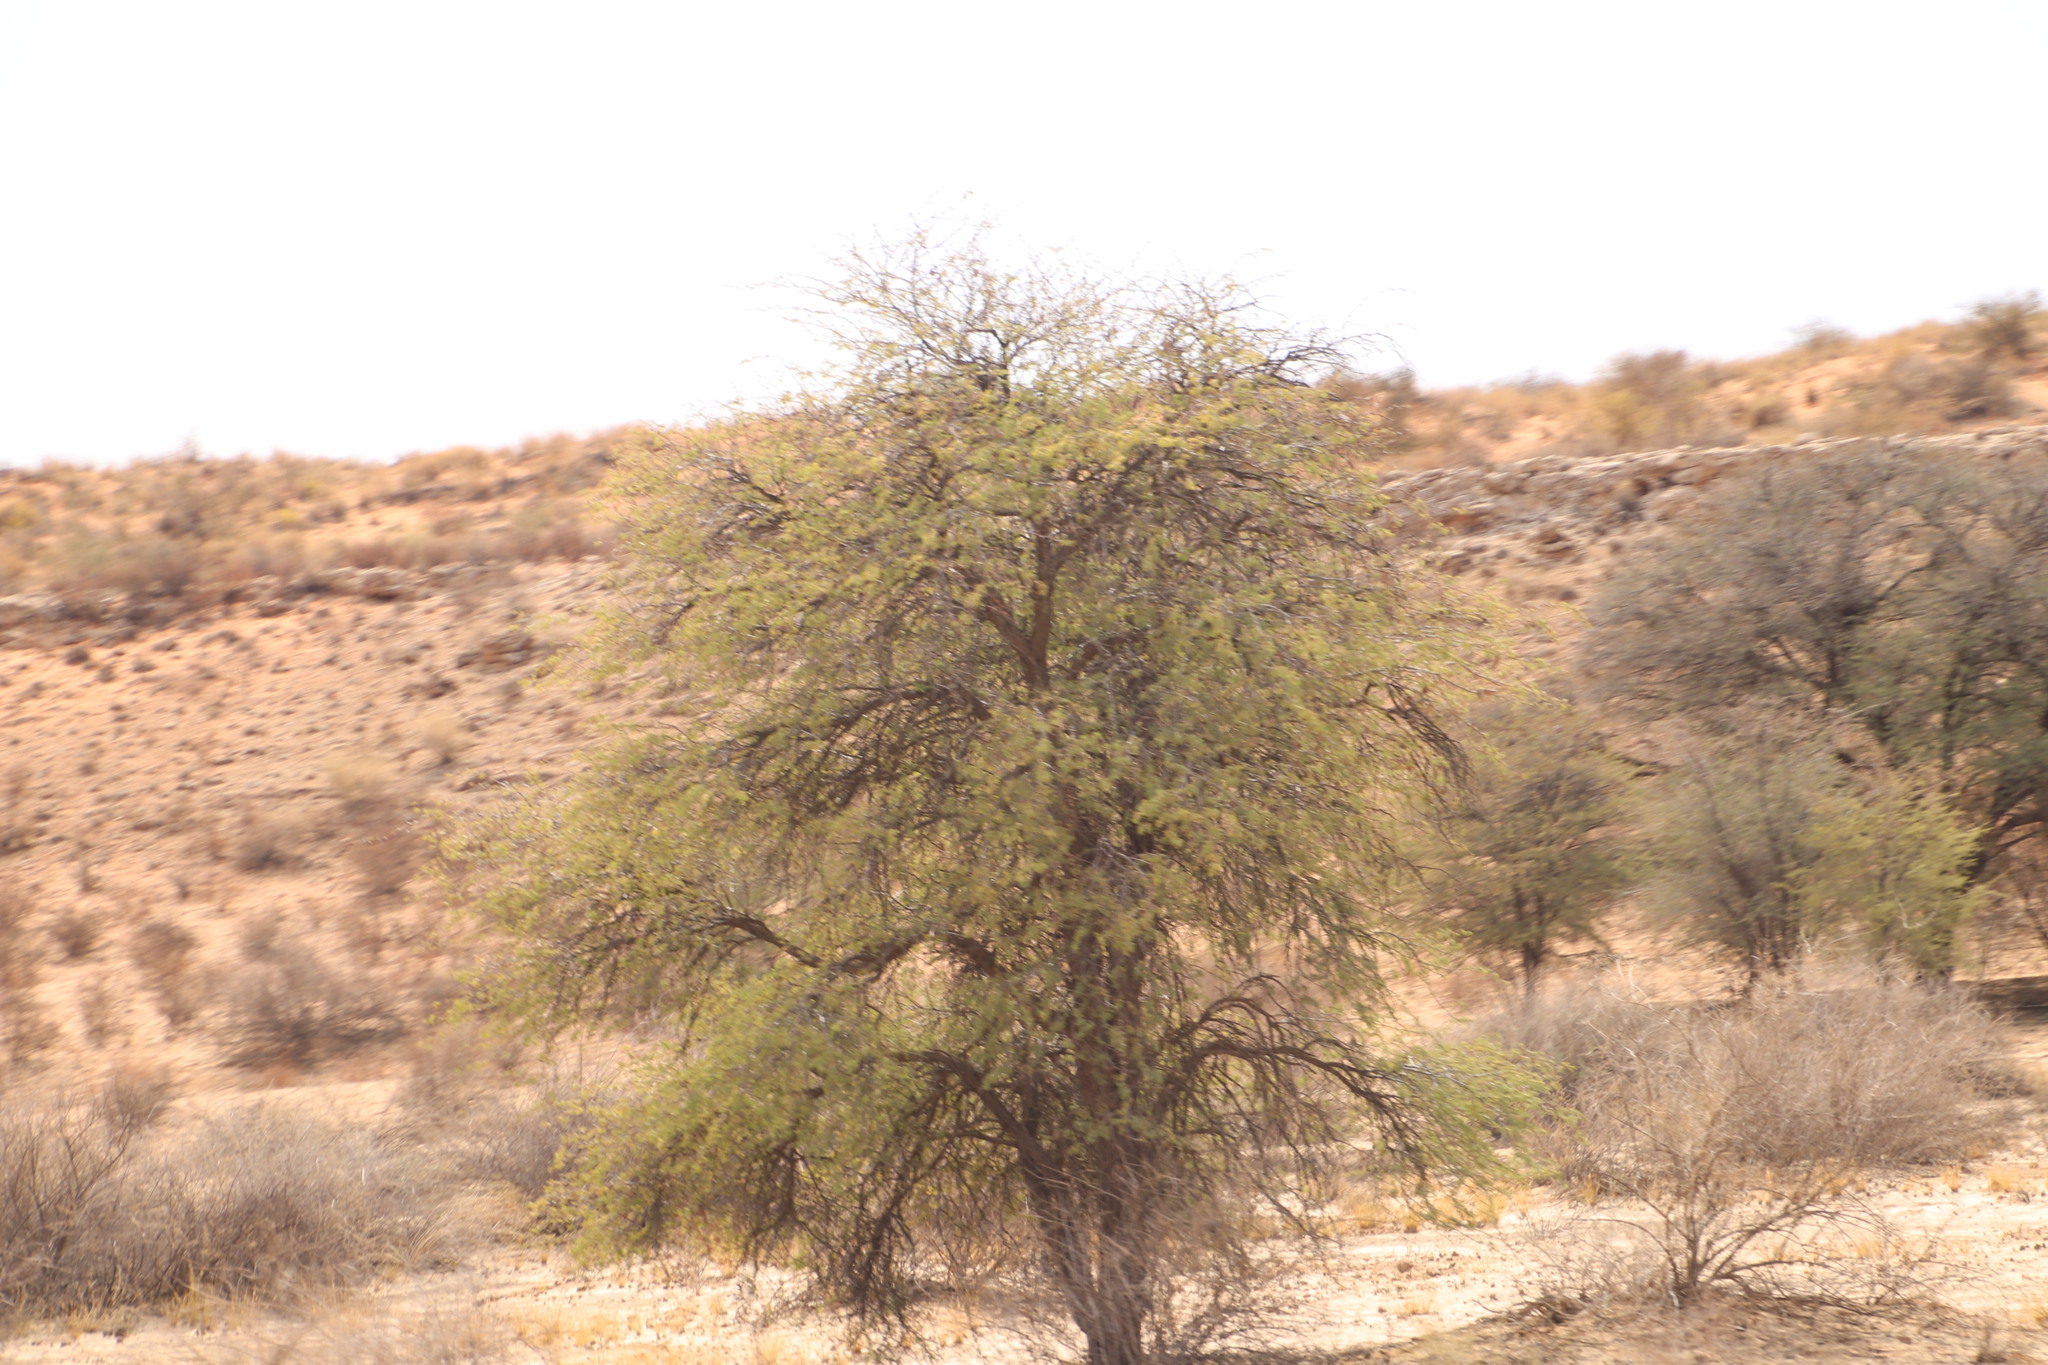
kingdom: Plantae
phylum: Tracheophyta
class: Magnoliopsida
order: Fabales
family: Fabaceae
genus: Vachellia
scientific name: Vachellia erioloba
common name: Camel thorn
